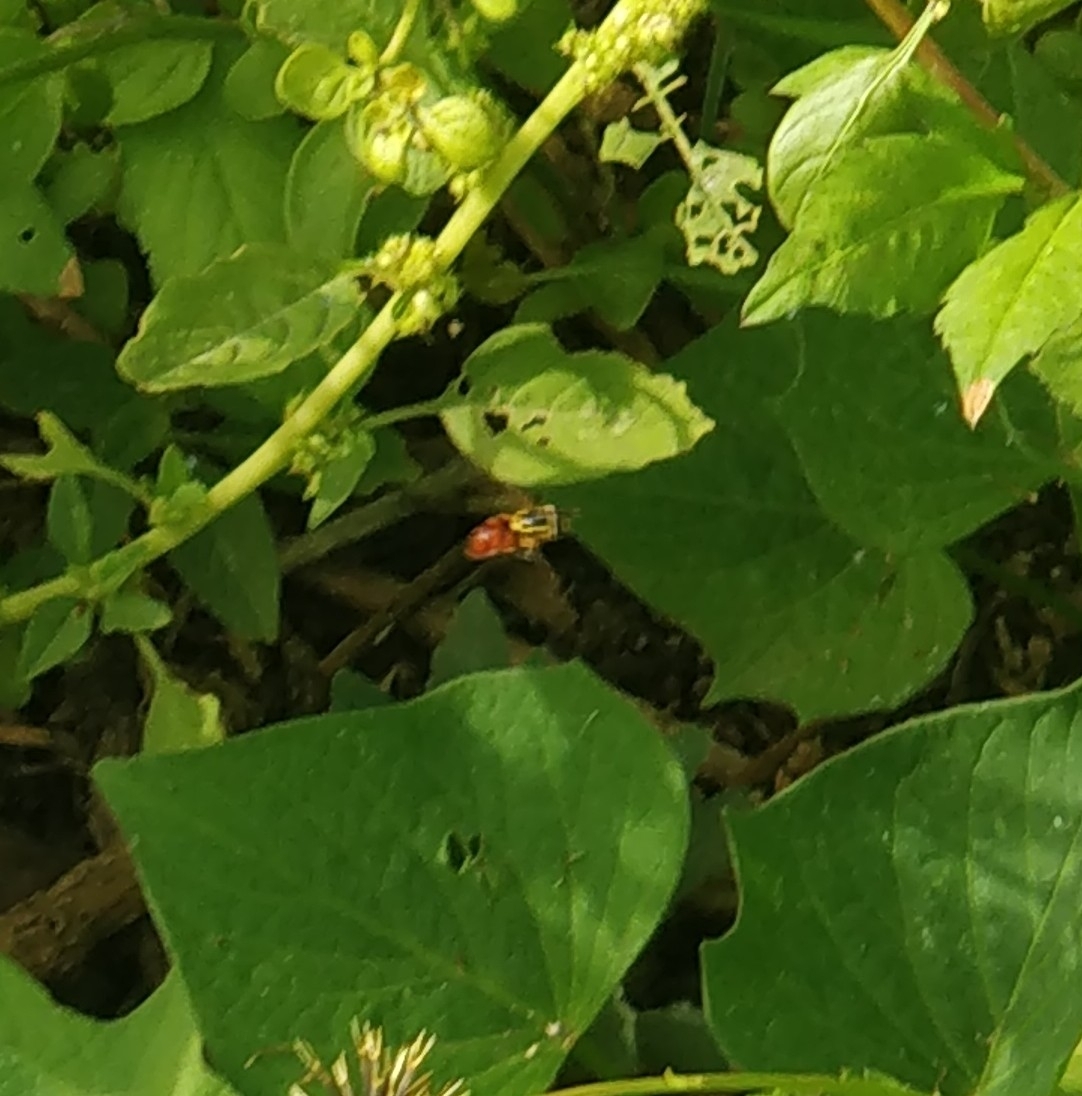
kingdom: Animalia
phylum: Arthropoda
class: Insecta
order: Diptera
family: Syrphidae
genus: Chrysotoxum
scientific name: Chrysotoxum triarcuatum
